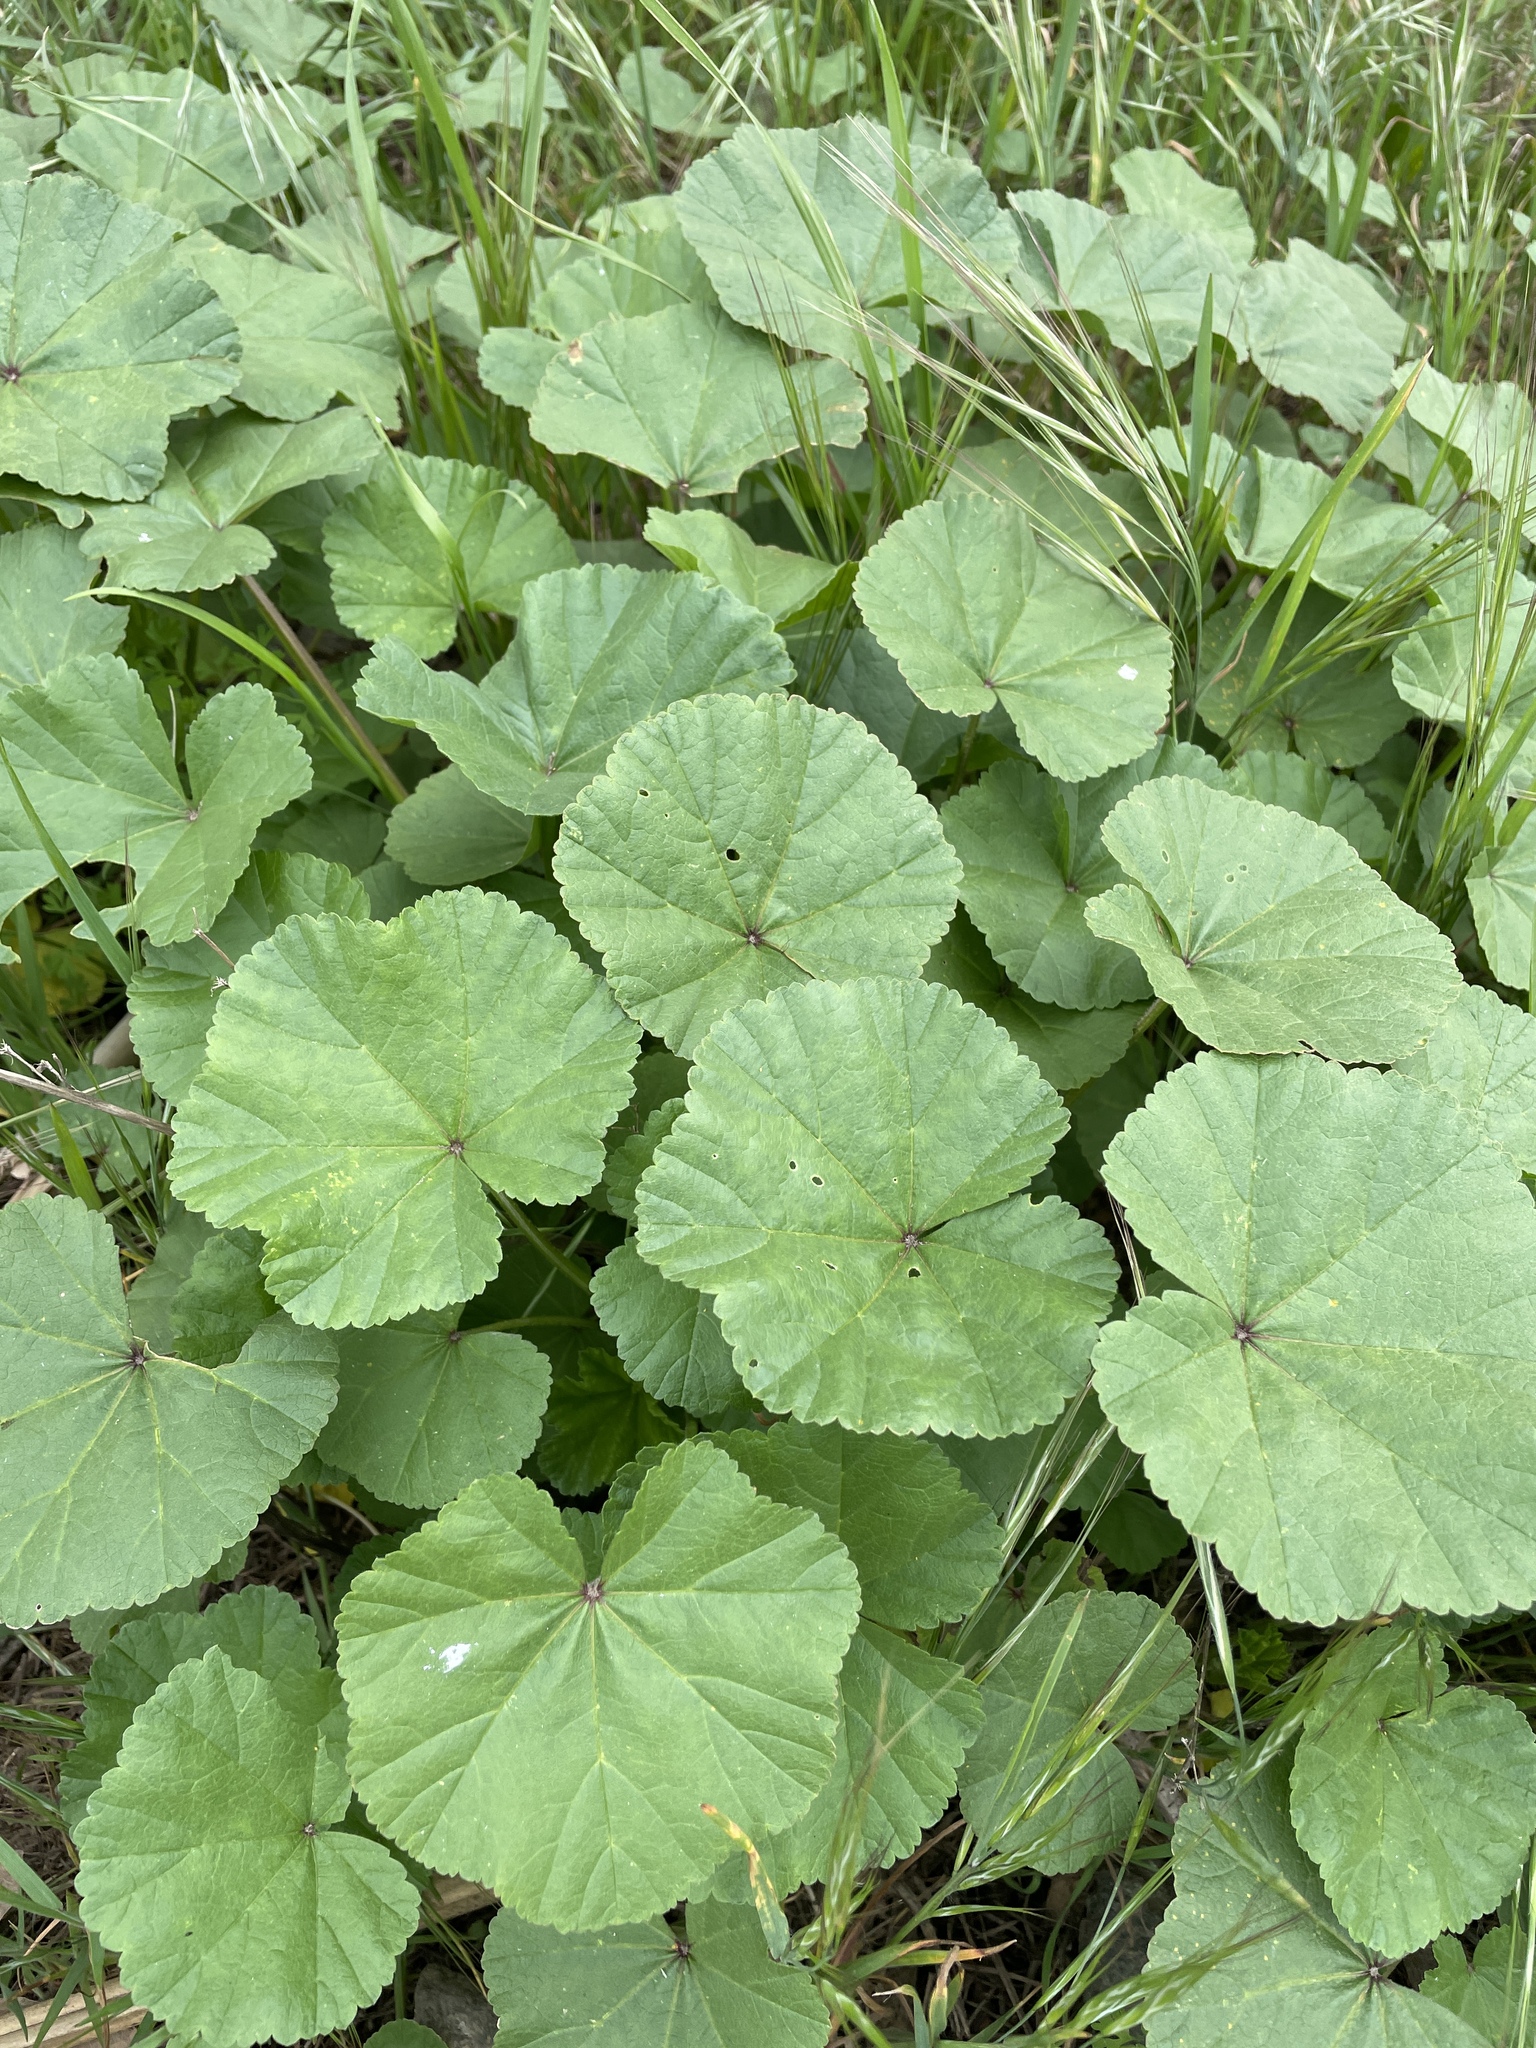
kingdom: Plantae
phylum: Tracheophyta
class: Magnoliopsida
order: Malvales
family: Malvaceae
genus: Malva
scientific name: Malva
